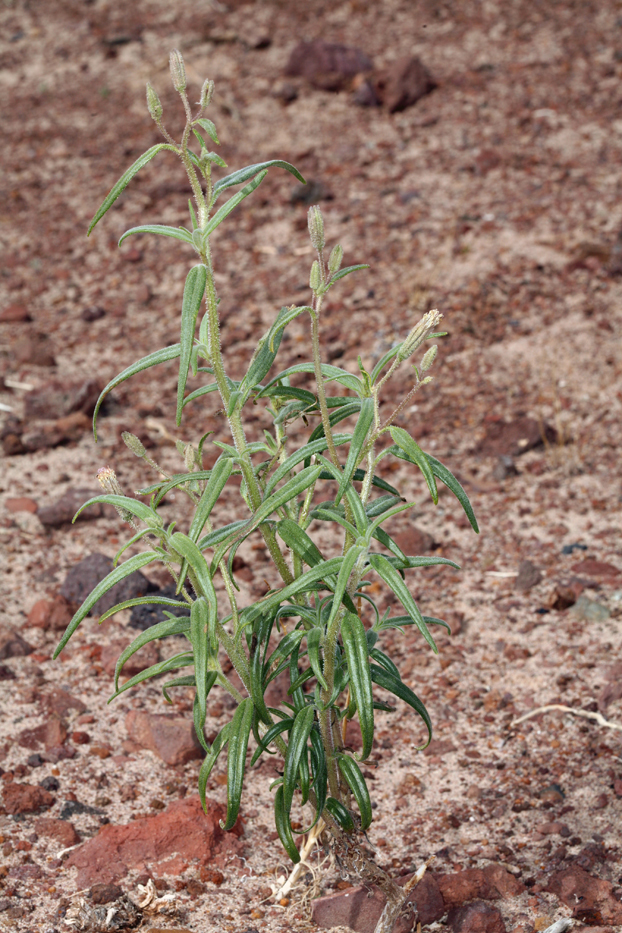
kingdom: Plantae
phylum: Tracheophyta
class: Magnoliopsida
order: Asterales
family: Asteraceae
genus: Palafoxia
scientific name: Palafoxia arida
